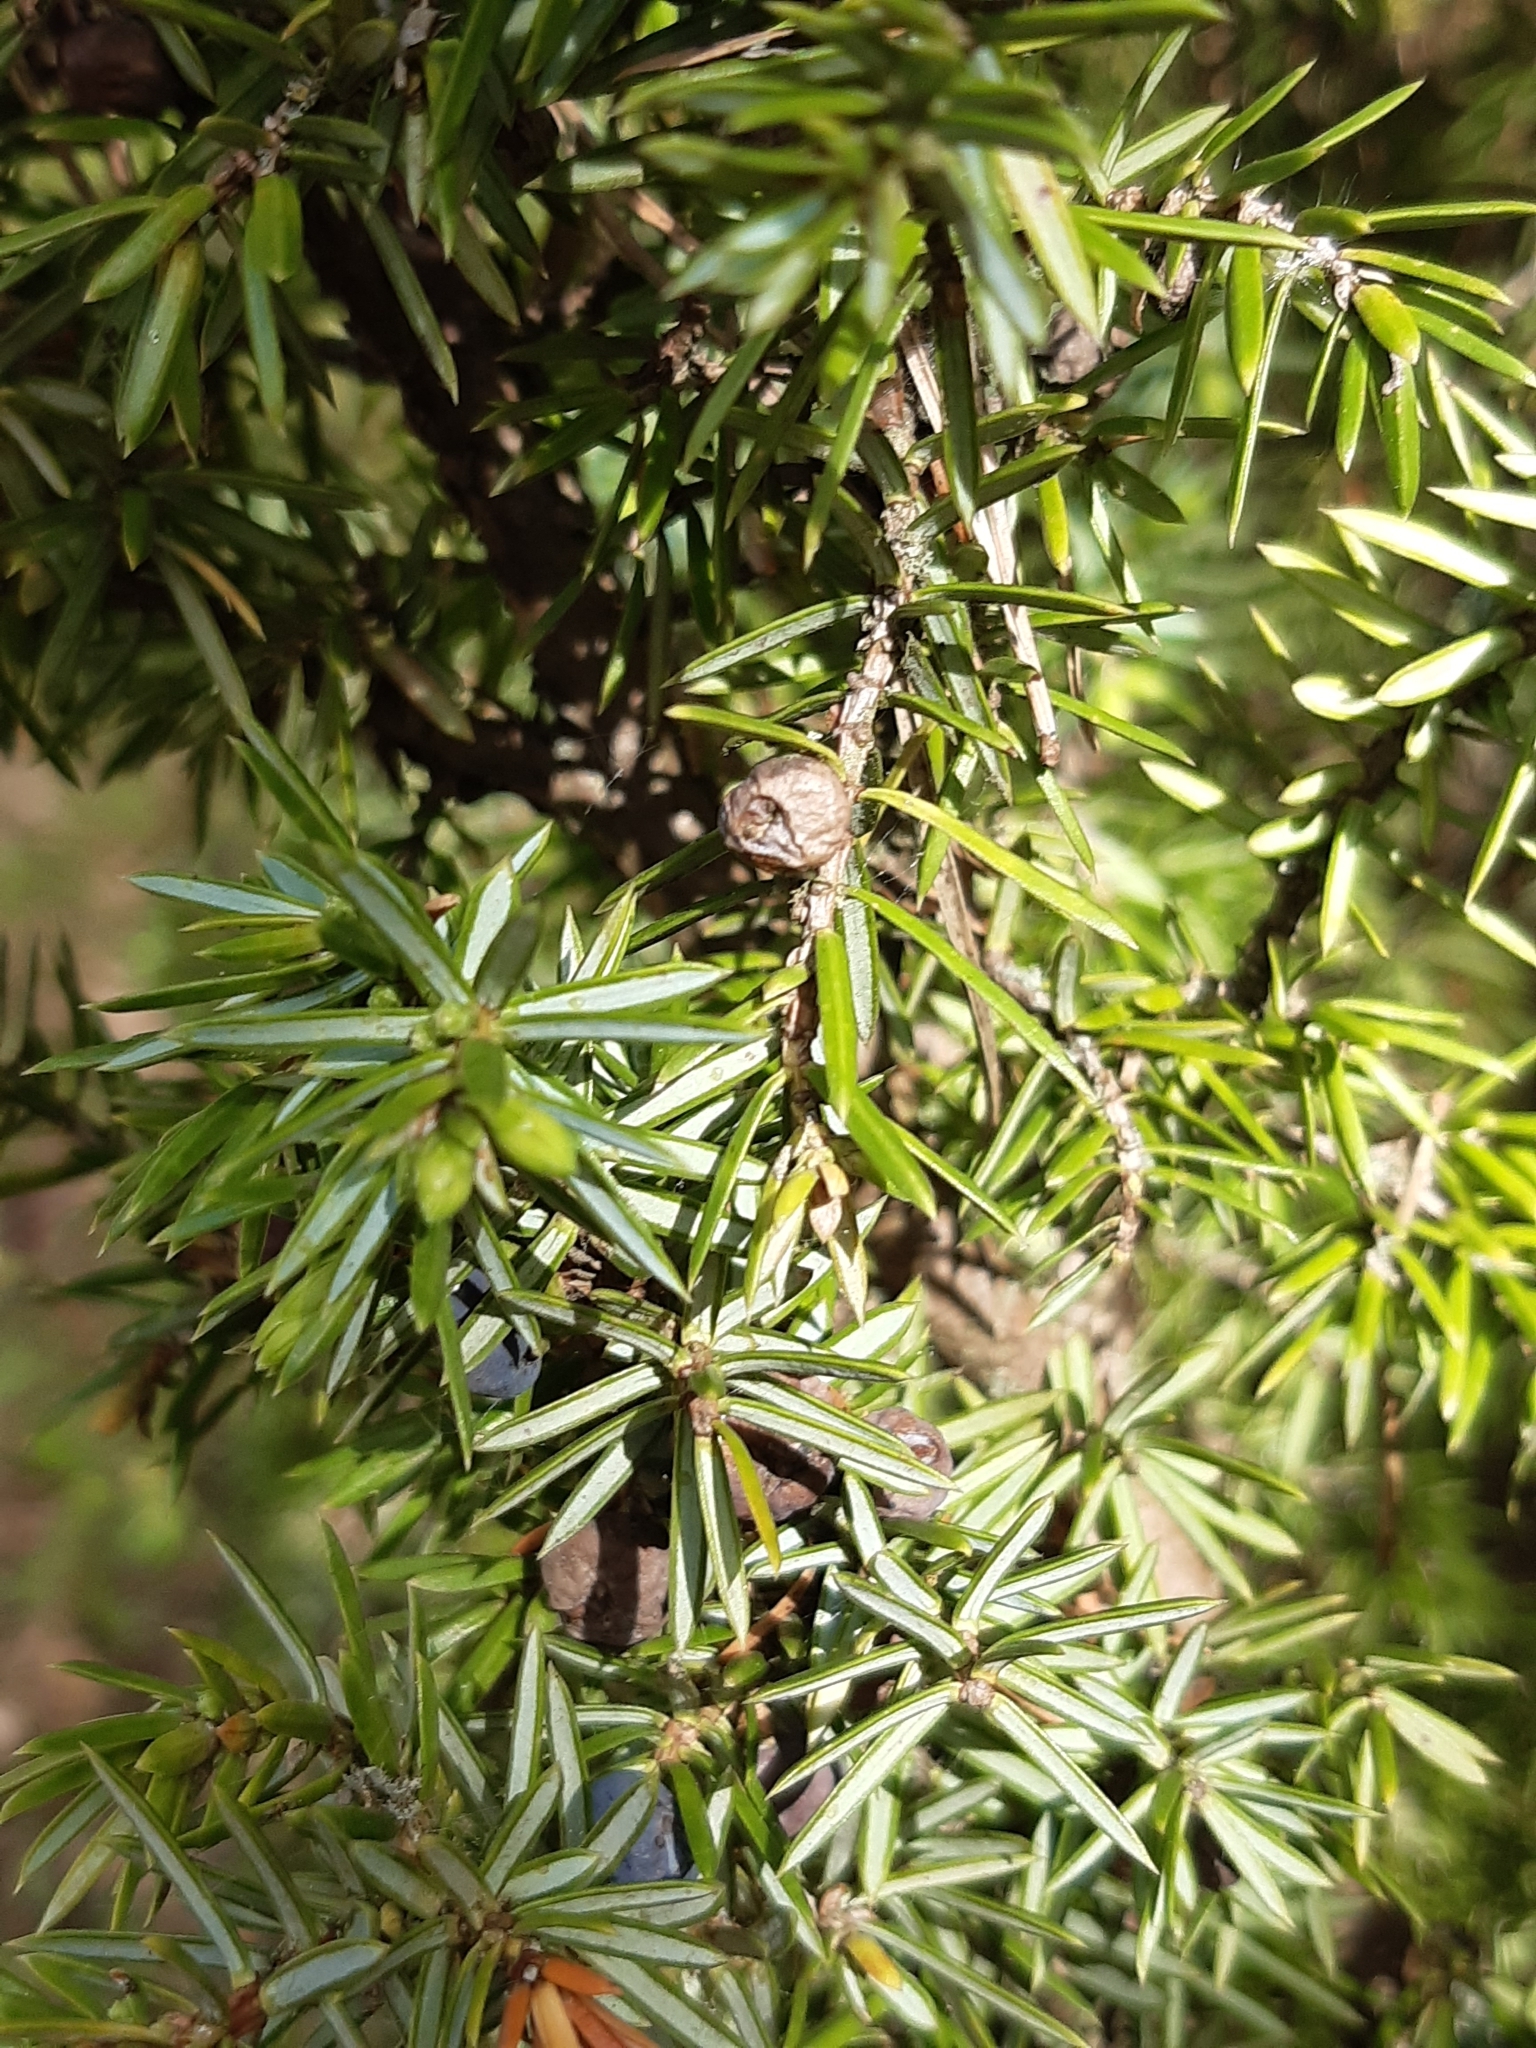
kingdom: Plantae
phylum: Tracheophyta
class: Pinopsida
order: Pinales
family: Cupressaceae
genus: Juniperus
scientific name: Juniperus communis
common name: Common juniper
